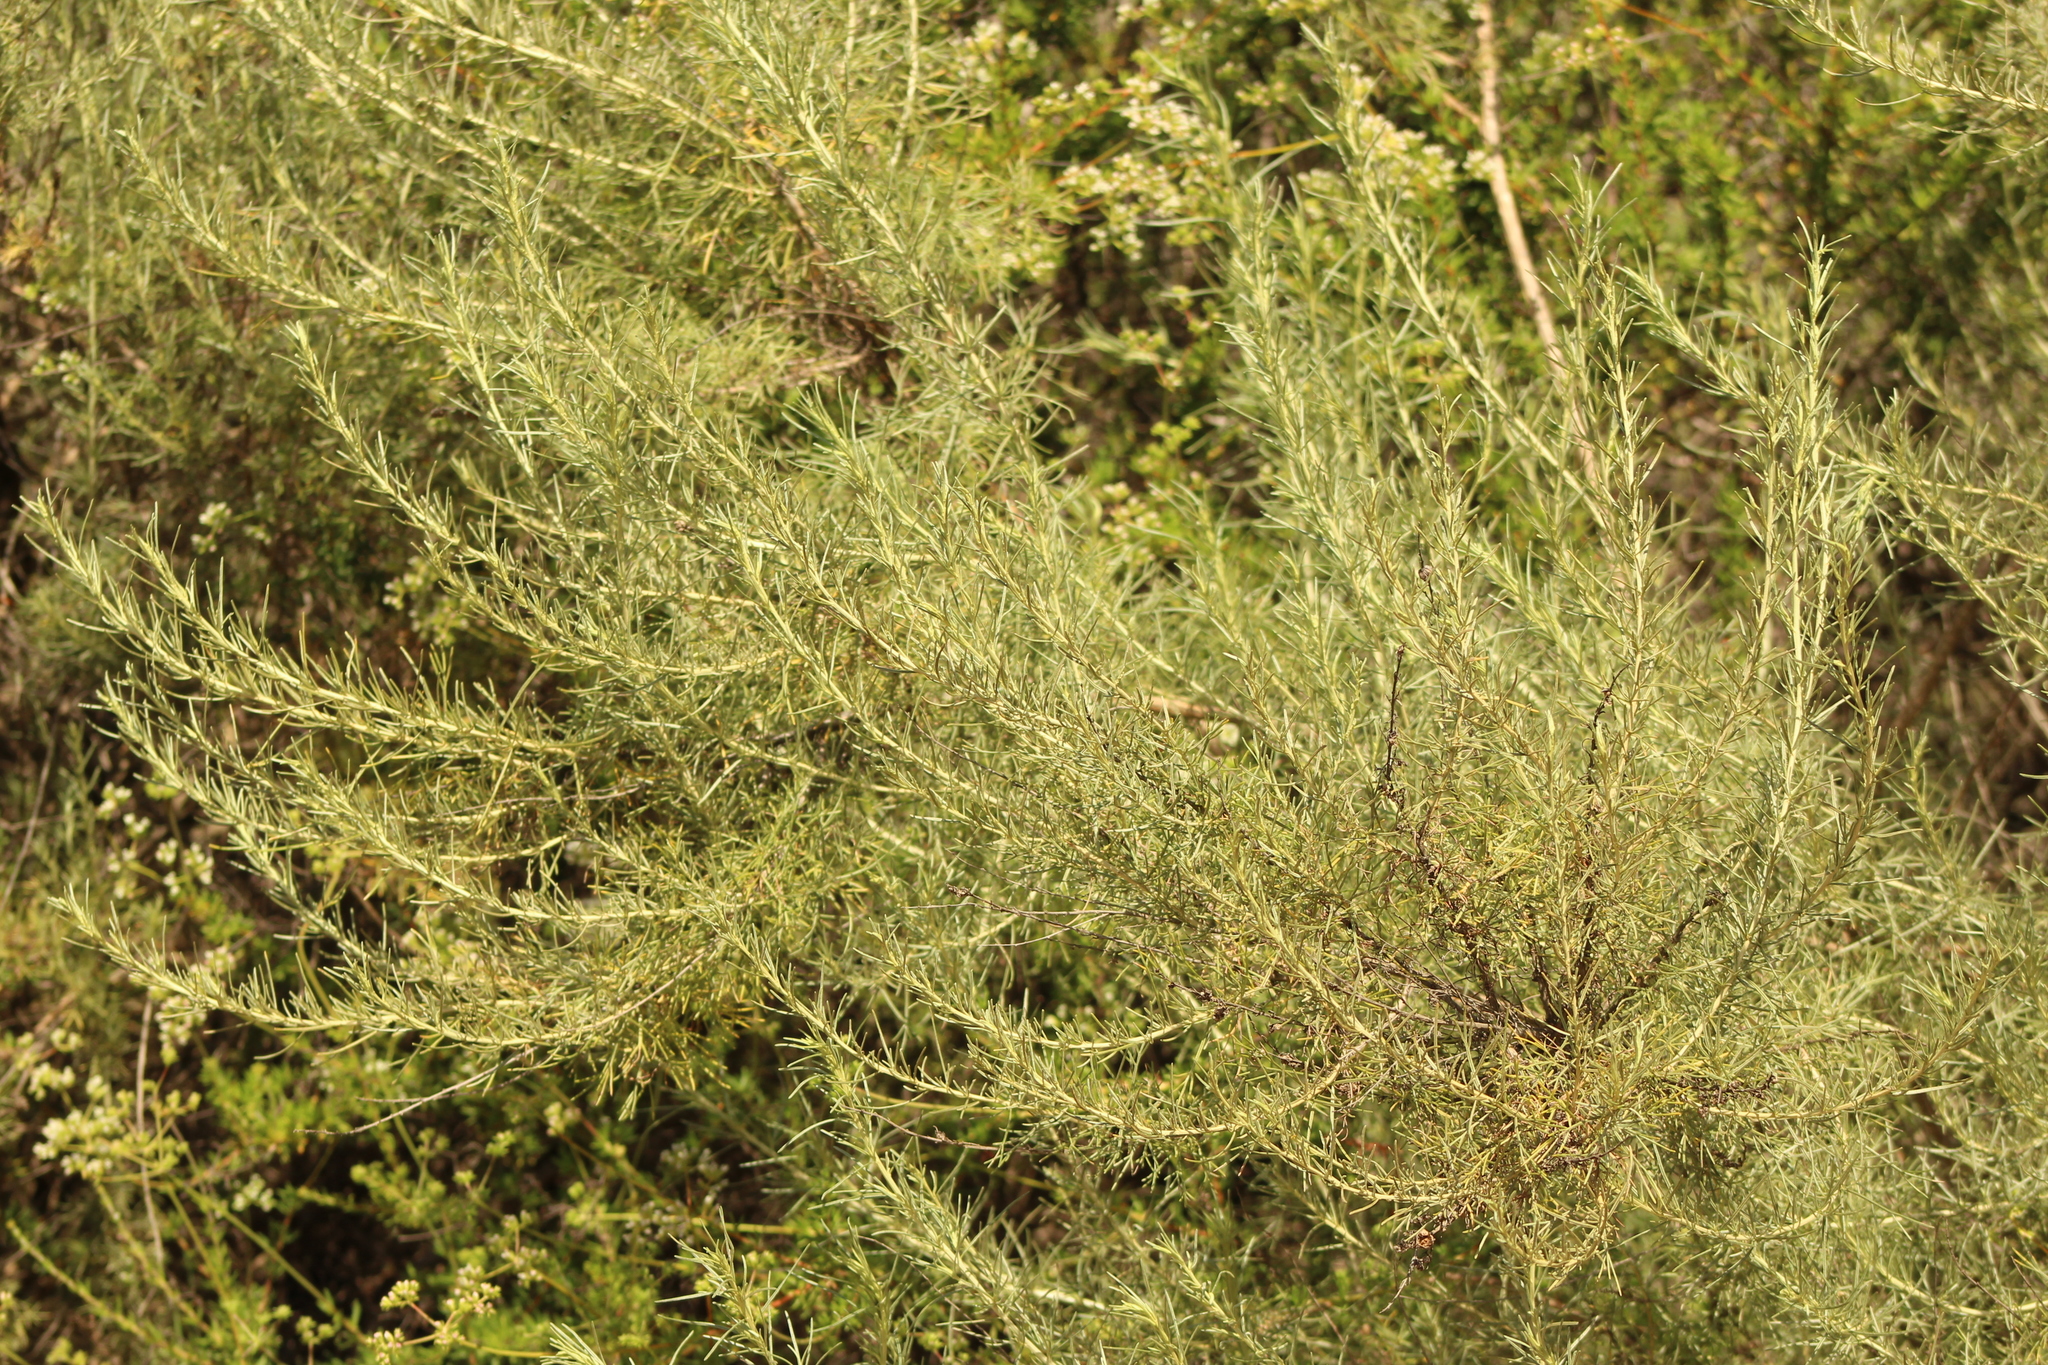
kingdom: Plantae
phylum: Tracheophyta
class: Magnoliopsida
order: Asterales
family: Asteraceae
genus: Artemisia
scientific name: Artemisia californica
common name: California sagebrush
